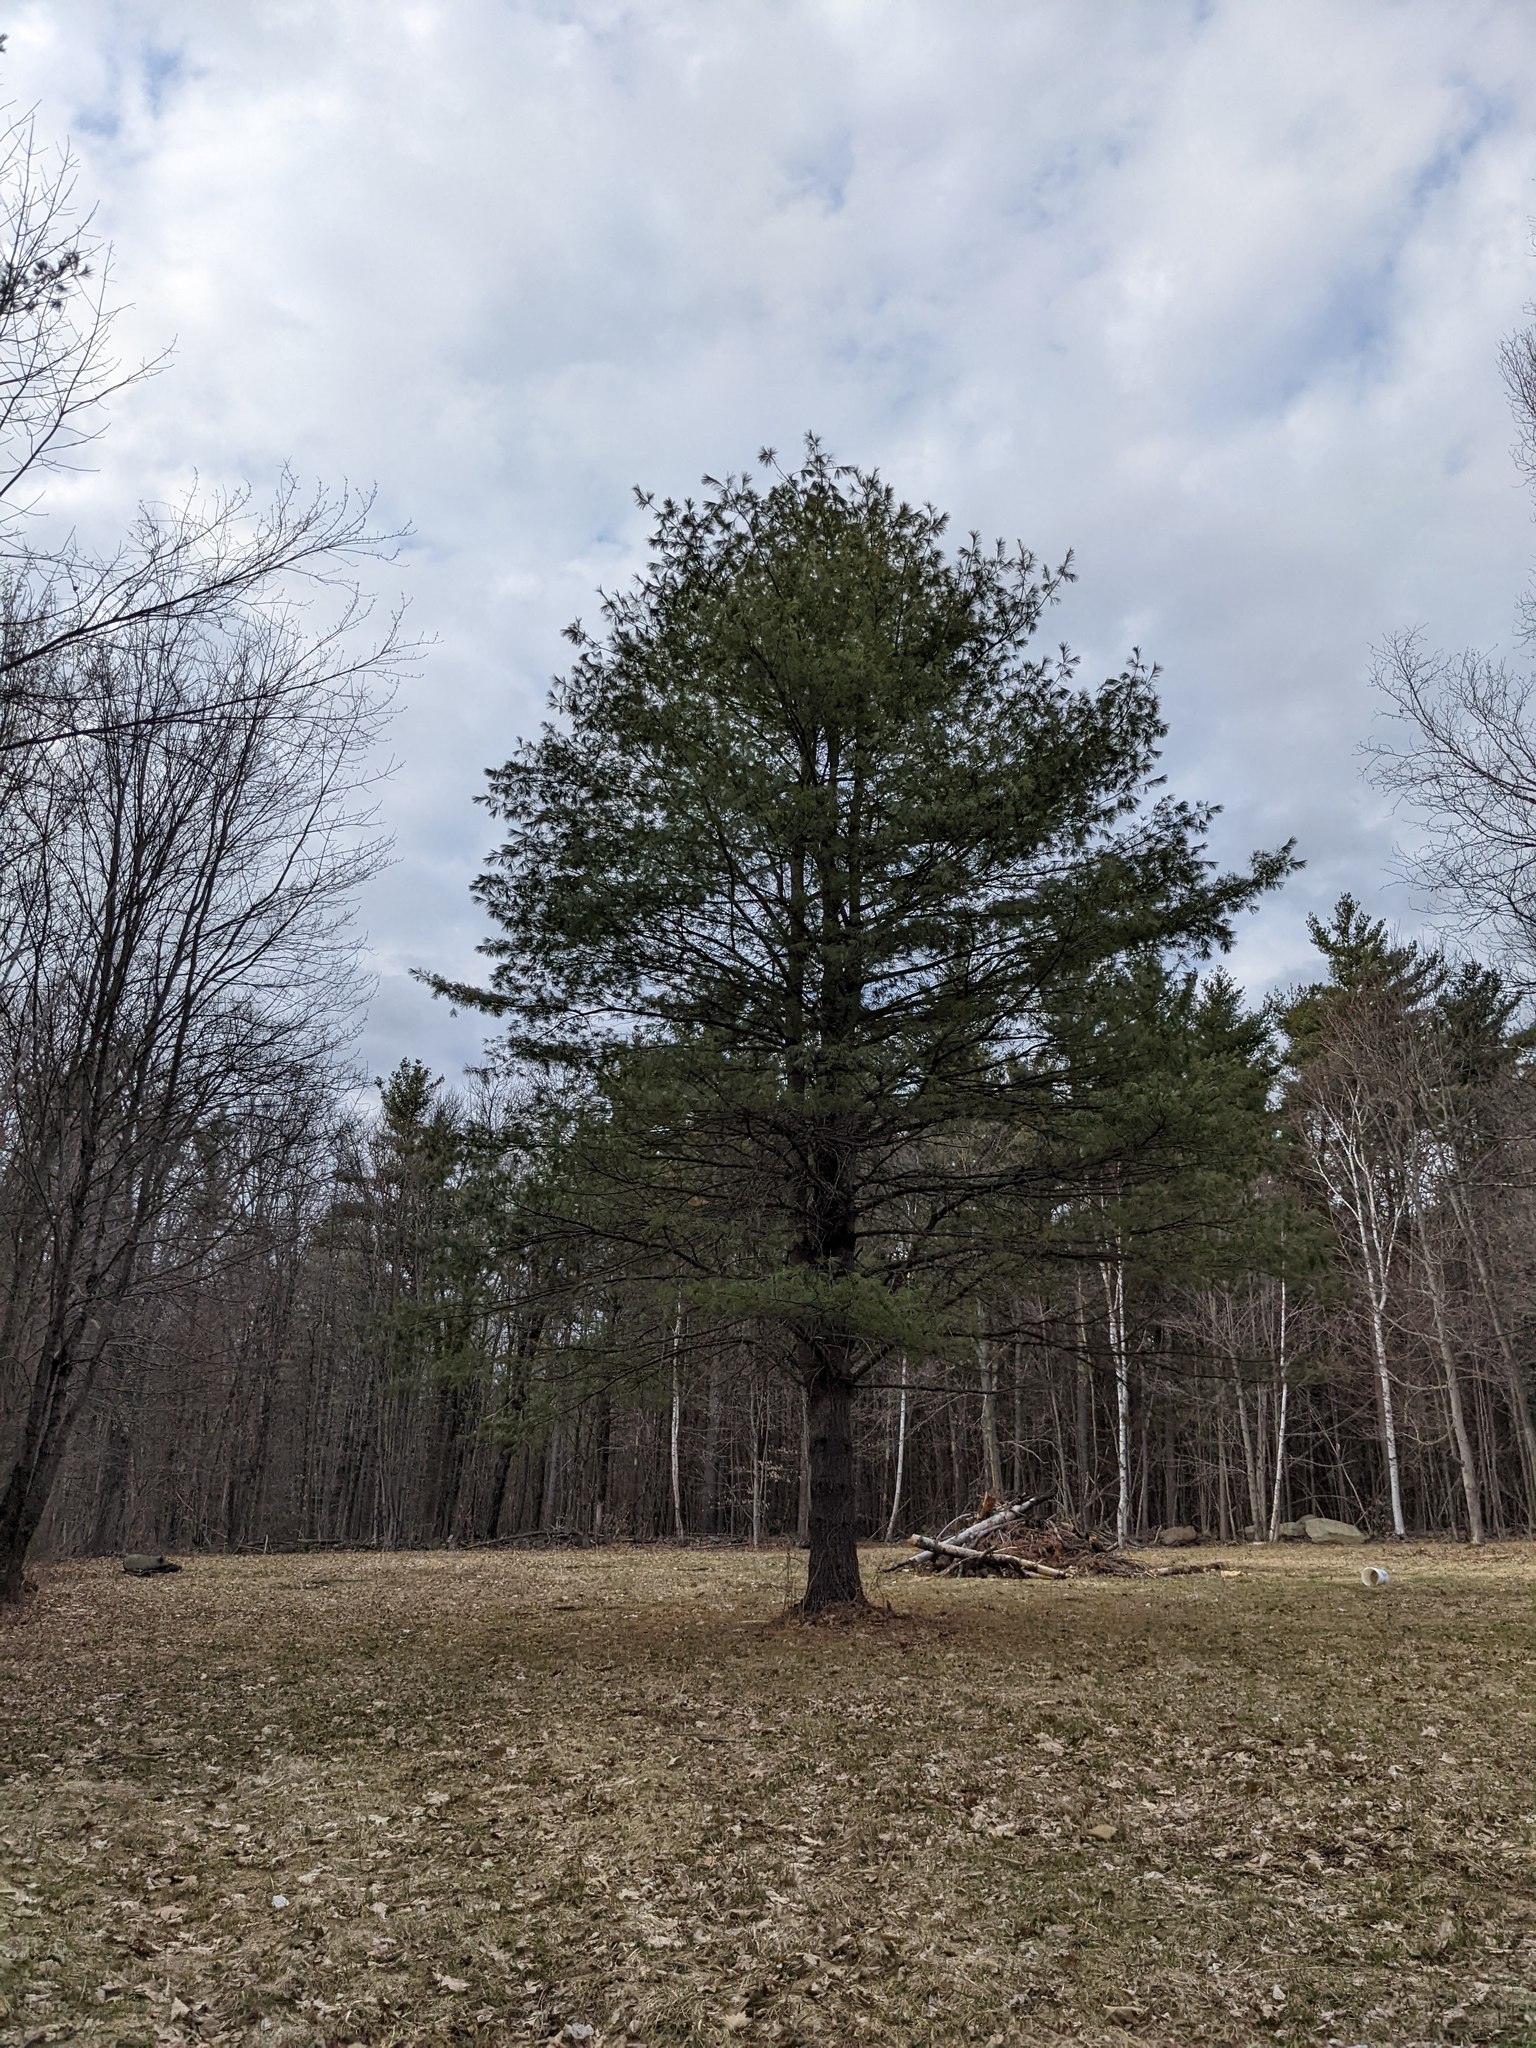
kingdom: Plantae
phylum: Tracheophyta
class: Pinopsida
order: Pinales
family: Pinaceae
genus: Pinus
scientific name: Pinus strobus
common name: Weymouth pine
